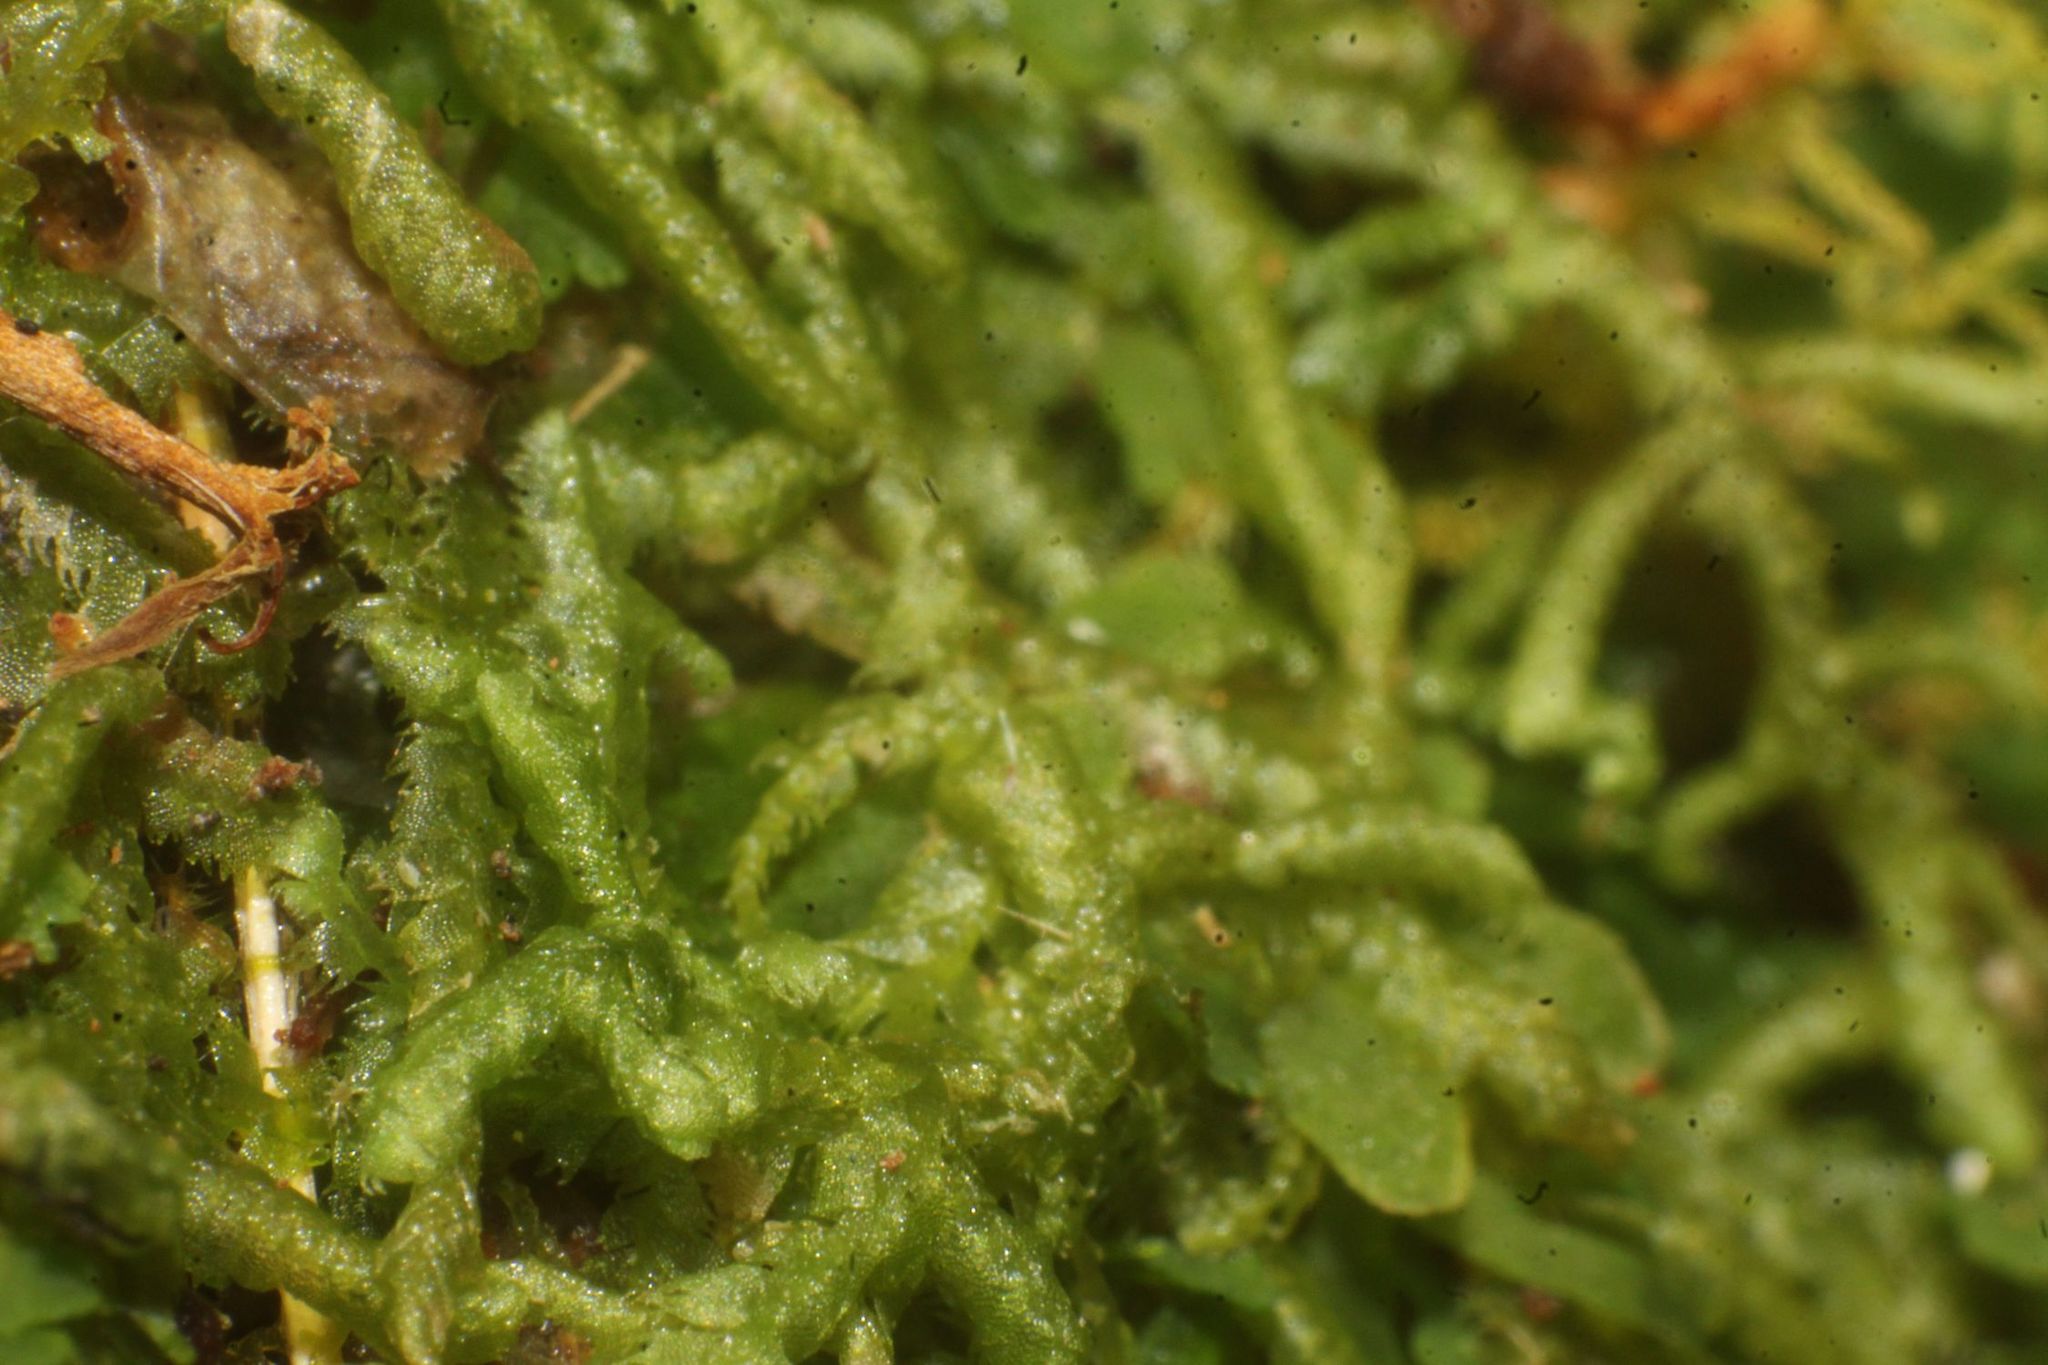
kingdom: Plantae
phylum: Marchantiophyta
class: Jungermanniopsida
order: Jungermanniales
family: Lepidoziaceae
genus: Ceramanus
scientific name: Ceramanus clatritexta
